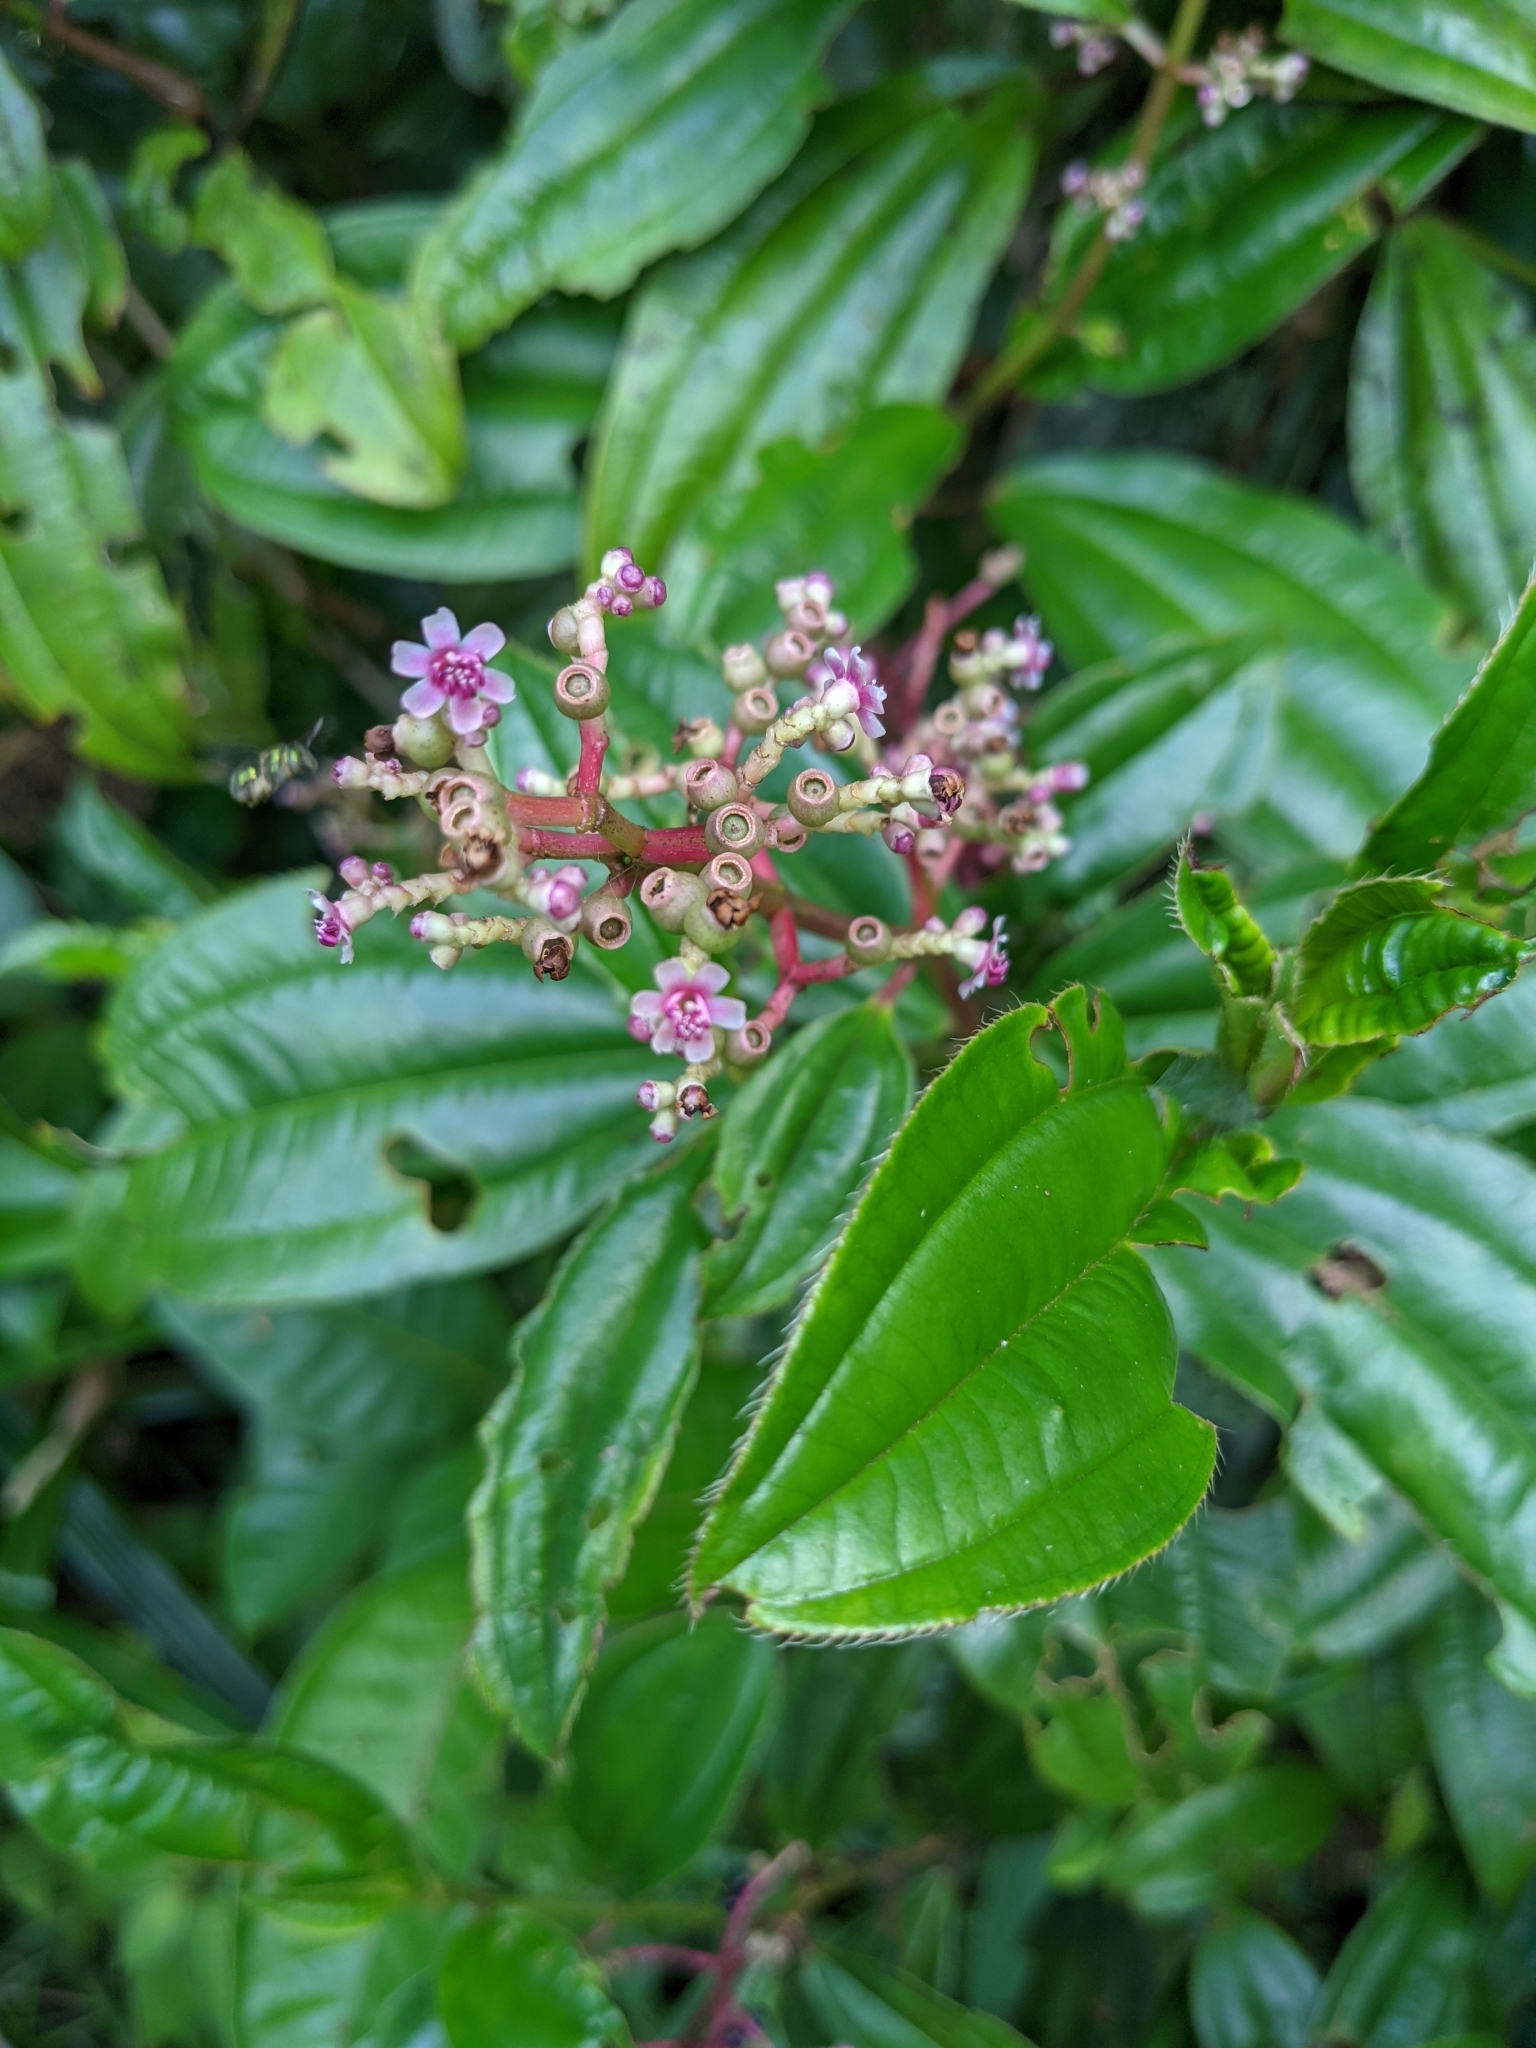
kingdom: Plantae
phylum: Tracheophyta
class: Magnoliopsida
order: Myrtales
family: Melastomataceae
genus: Miconia
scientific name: Miconia ciliata
